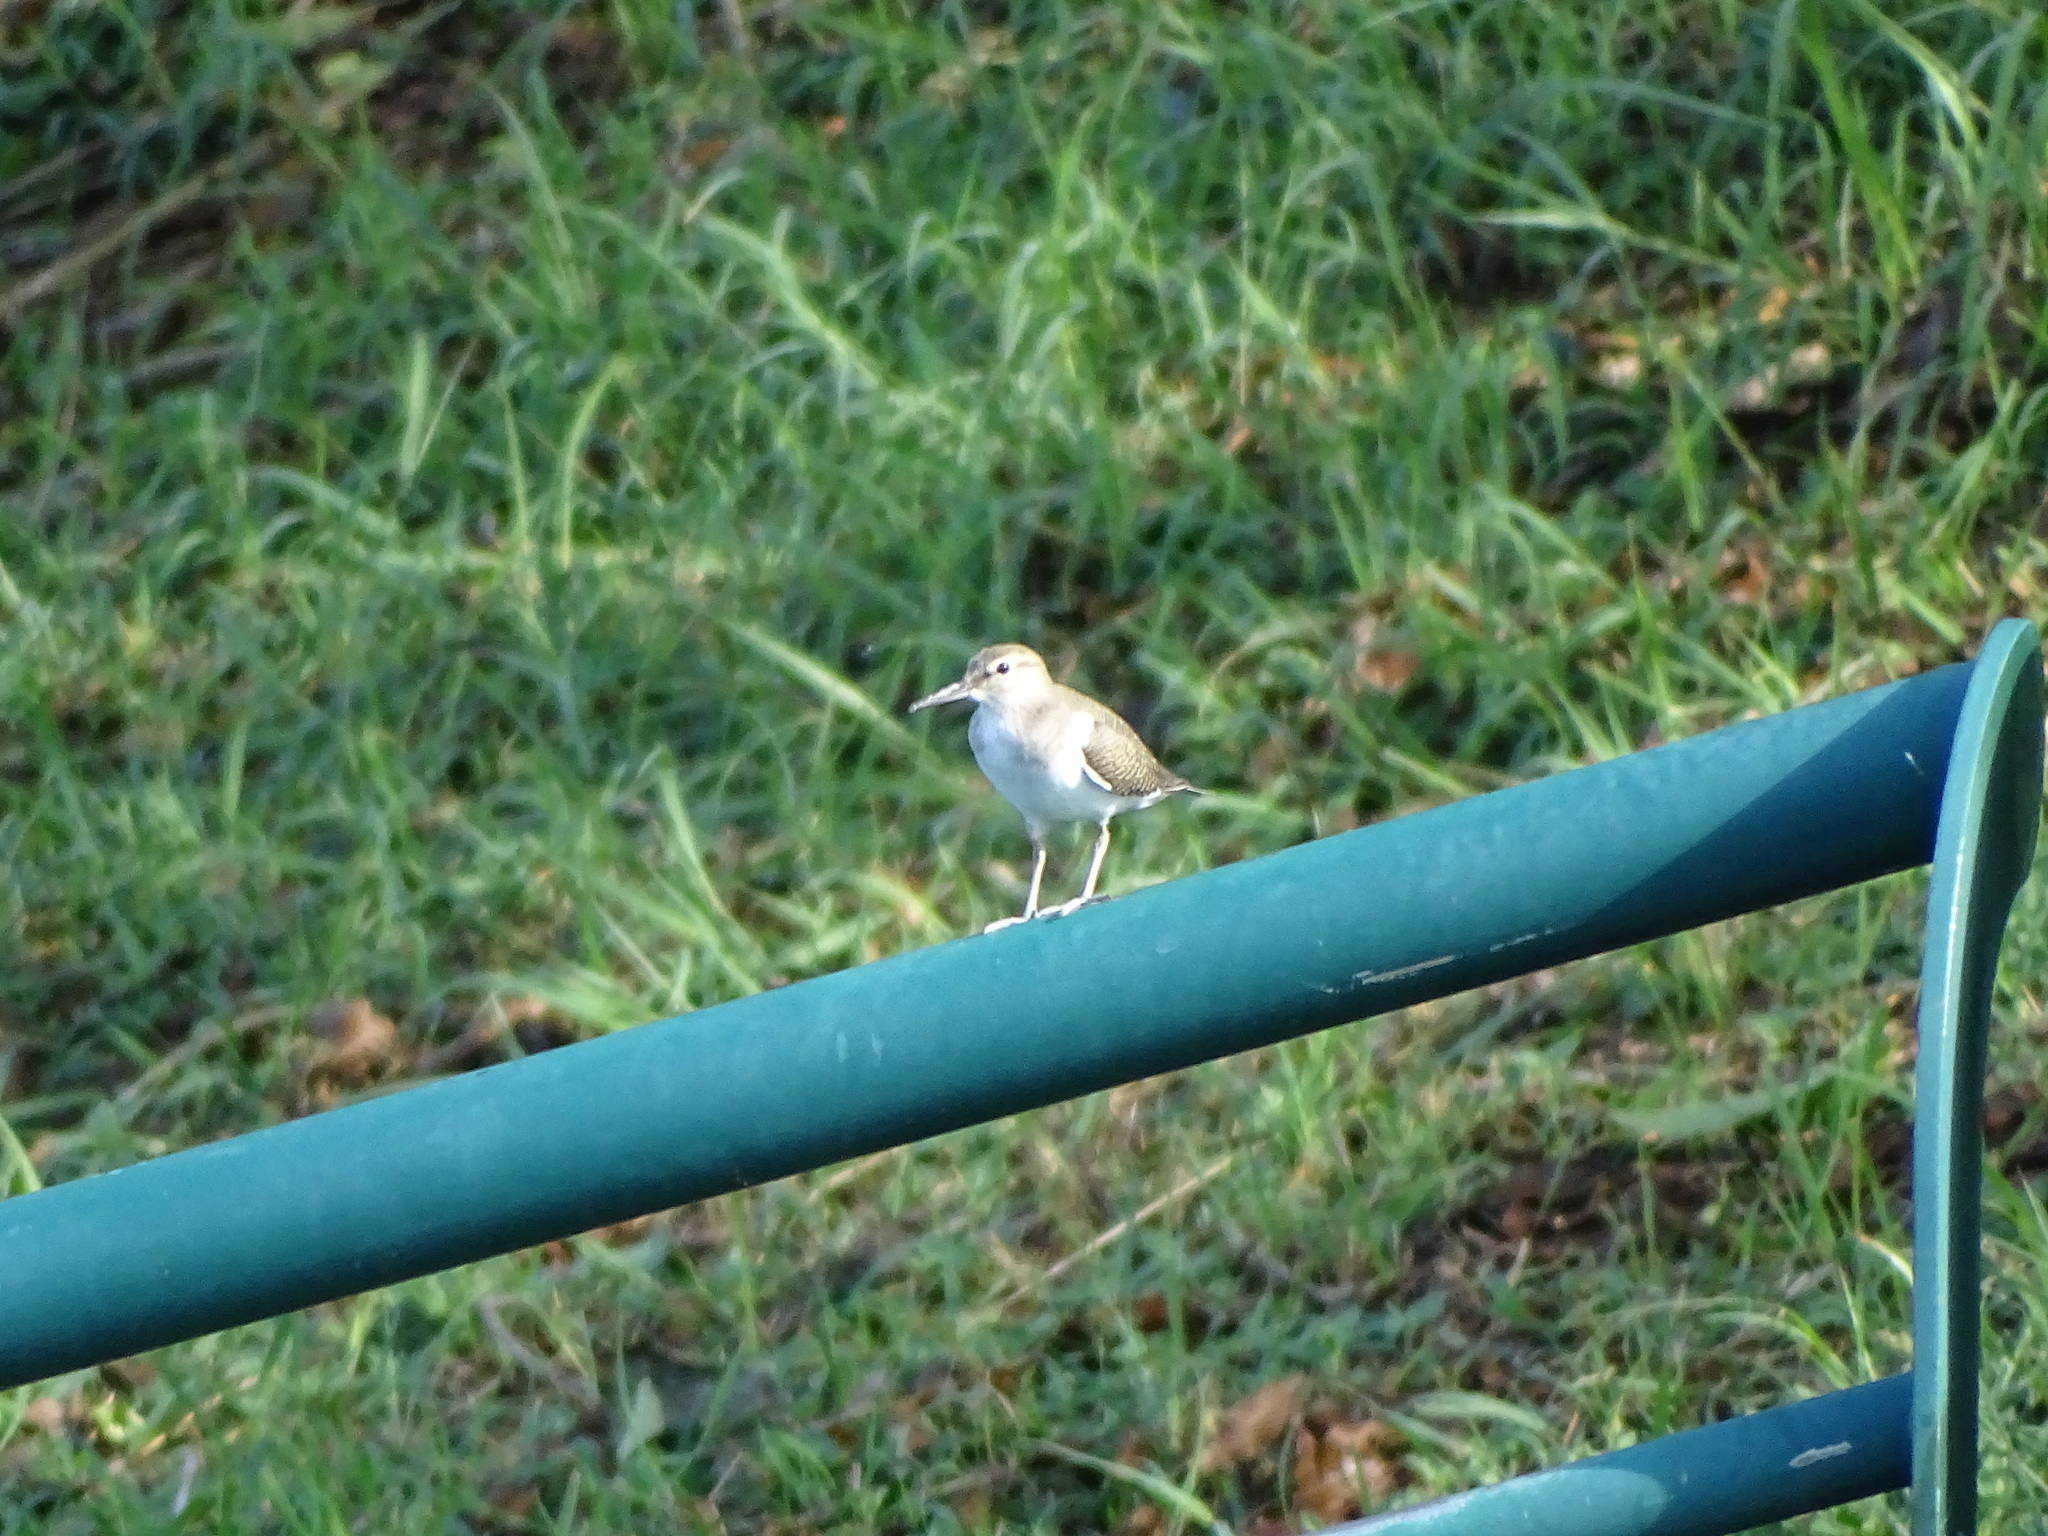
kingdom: Animalia
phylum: Chordata
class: Aves
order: Charadriiformes
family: Scolopacidae
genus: Actitis
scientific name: Actitis hypoleucos
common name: Common sandpiper
